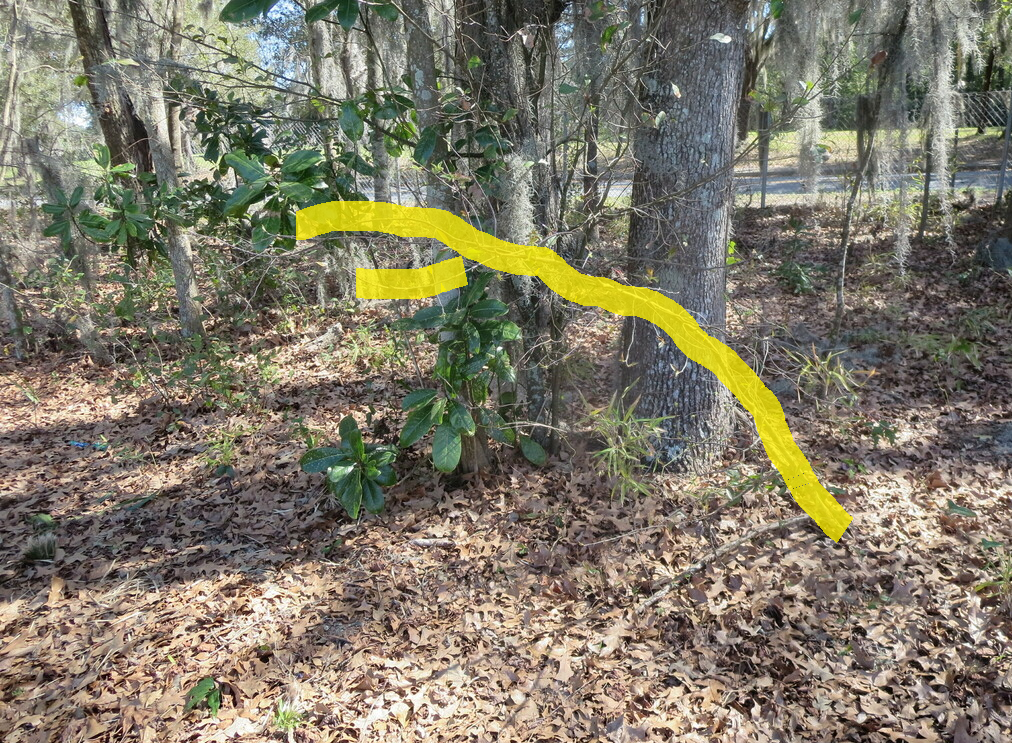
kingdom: Plantae
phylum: Tracheophyta
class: Magnoliopsida
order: Rosales
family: Rosaceae
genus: Prunus
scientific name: Prunus serotina
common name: Black cherry
